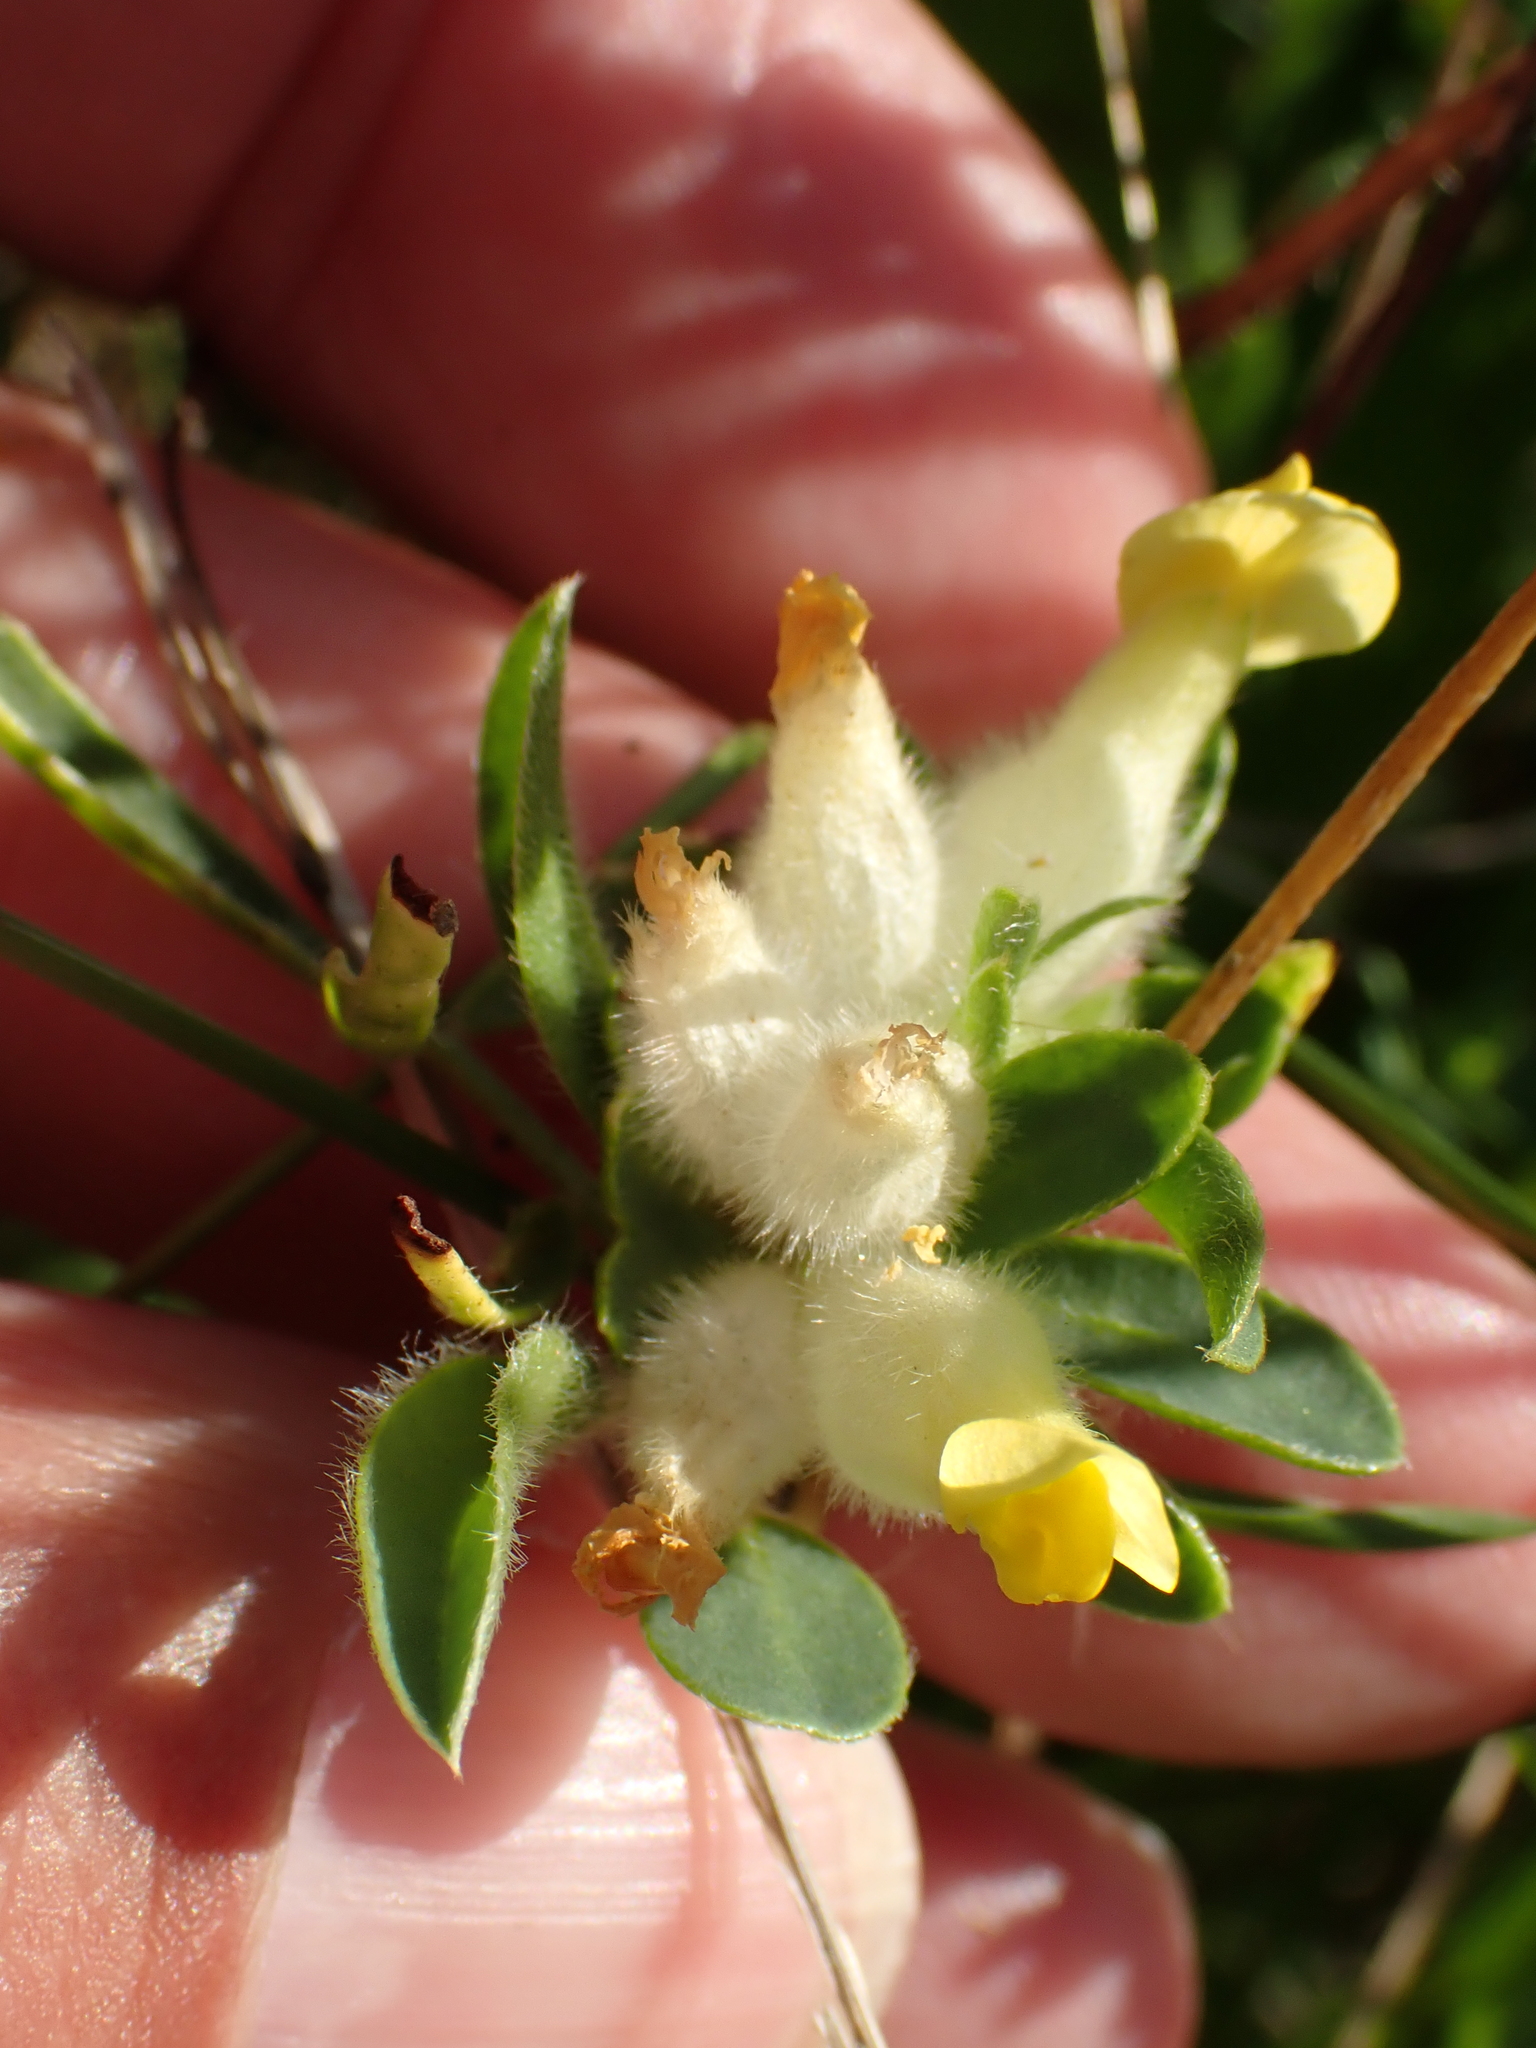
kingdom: Plantae
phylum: Tracheophyta
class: Magnoliopsida
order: Fabales
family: Fabaceae
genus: Anthyllis
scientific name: Anthyllis vulneraria
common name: Kidney vetch
